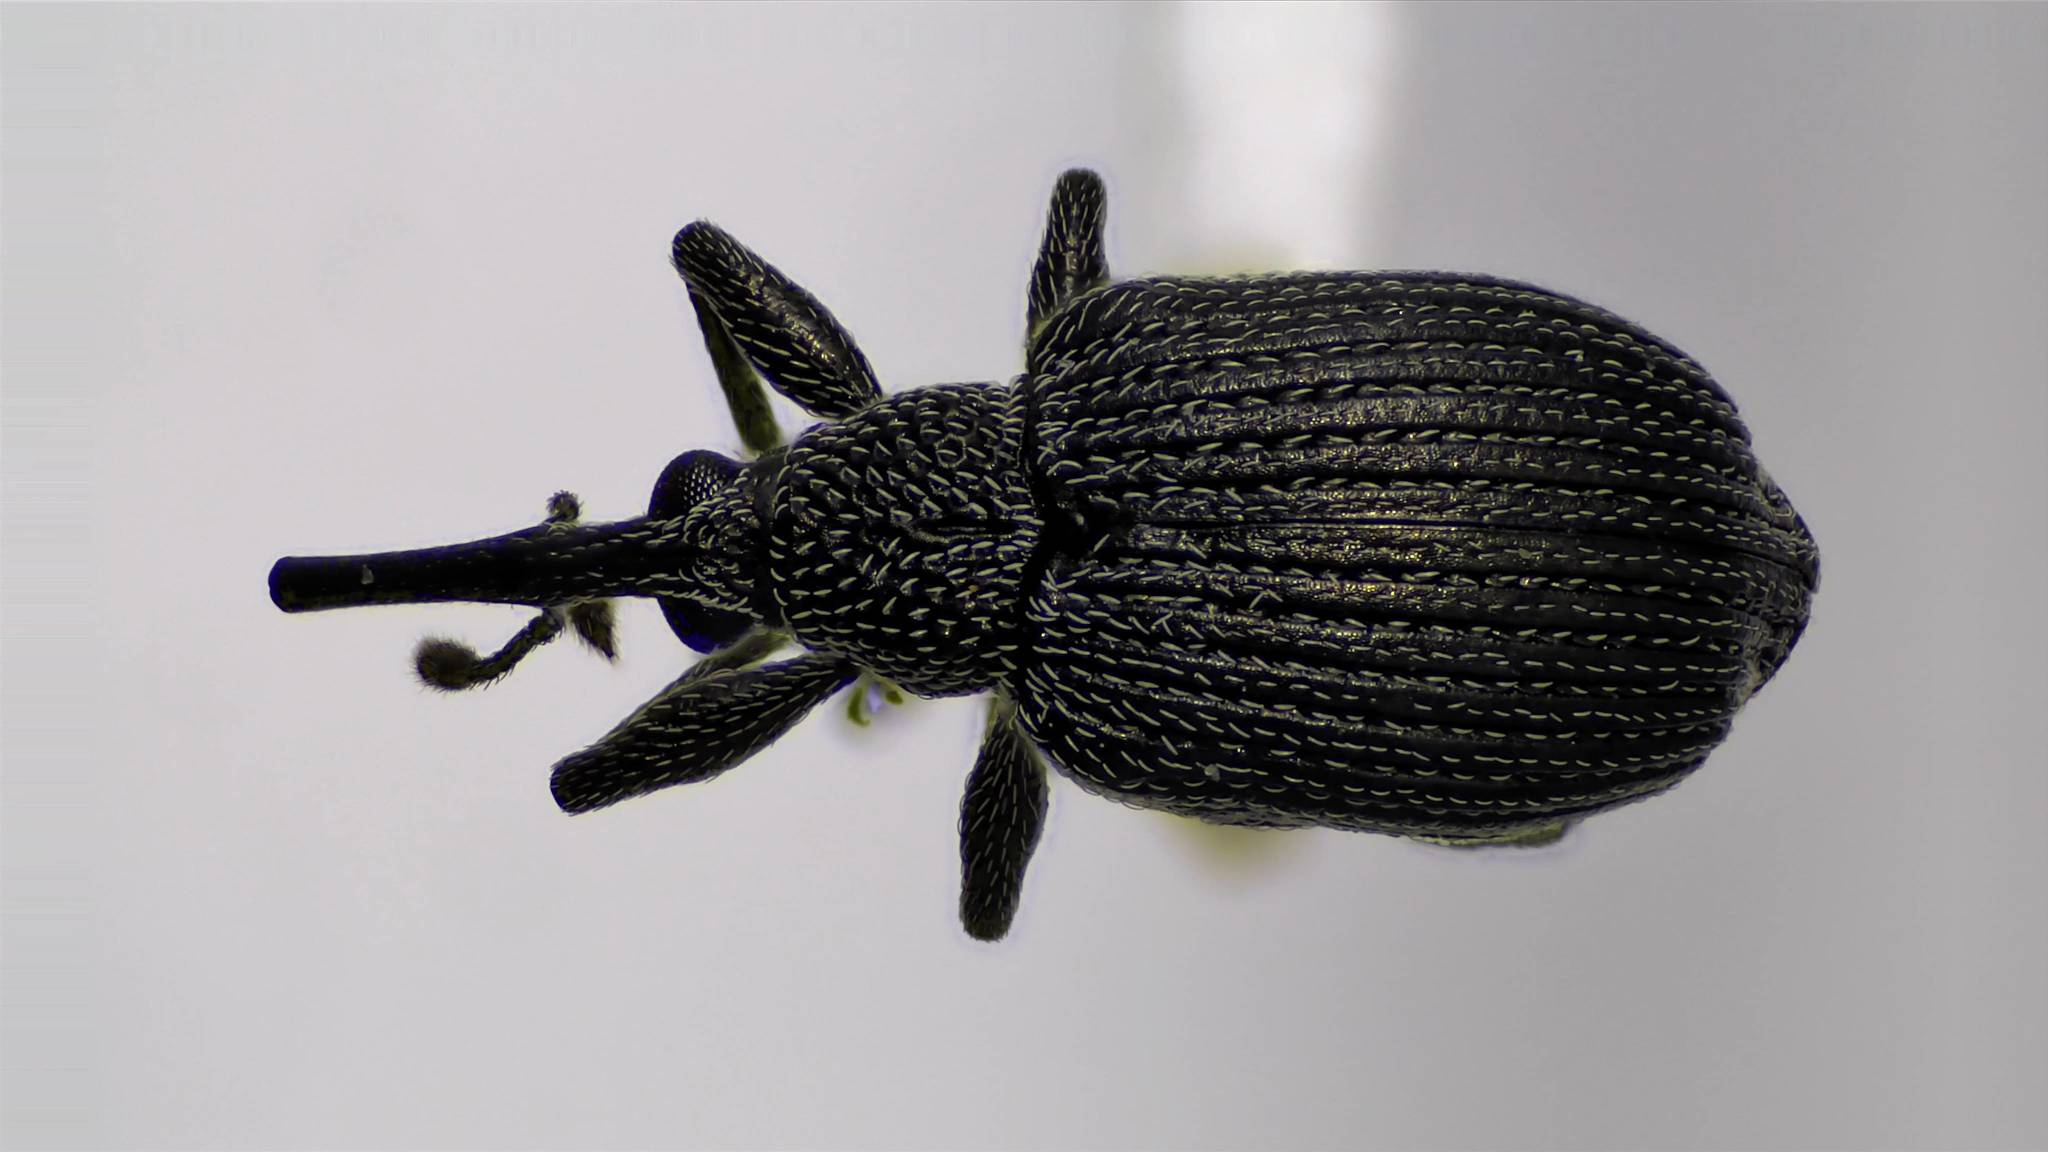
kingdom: Animalia
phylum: Arthropoda
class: Insecta
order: Coleoptera
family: Brentidae
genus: Trichapion
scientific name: Trichapion
